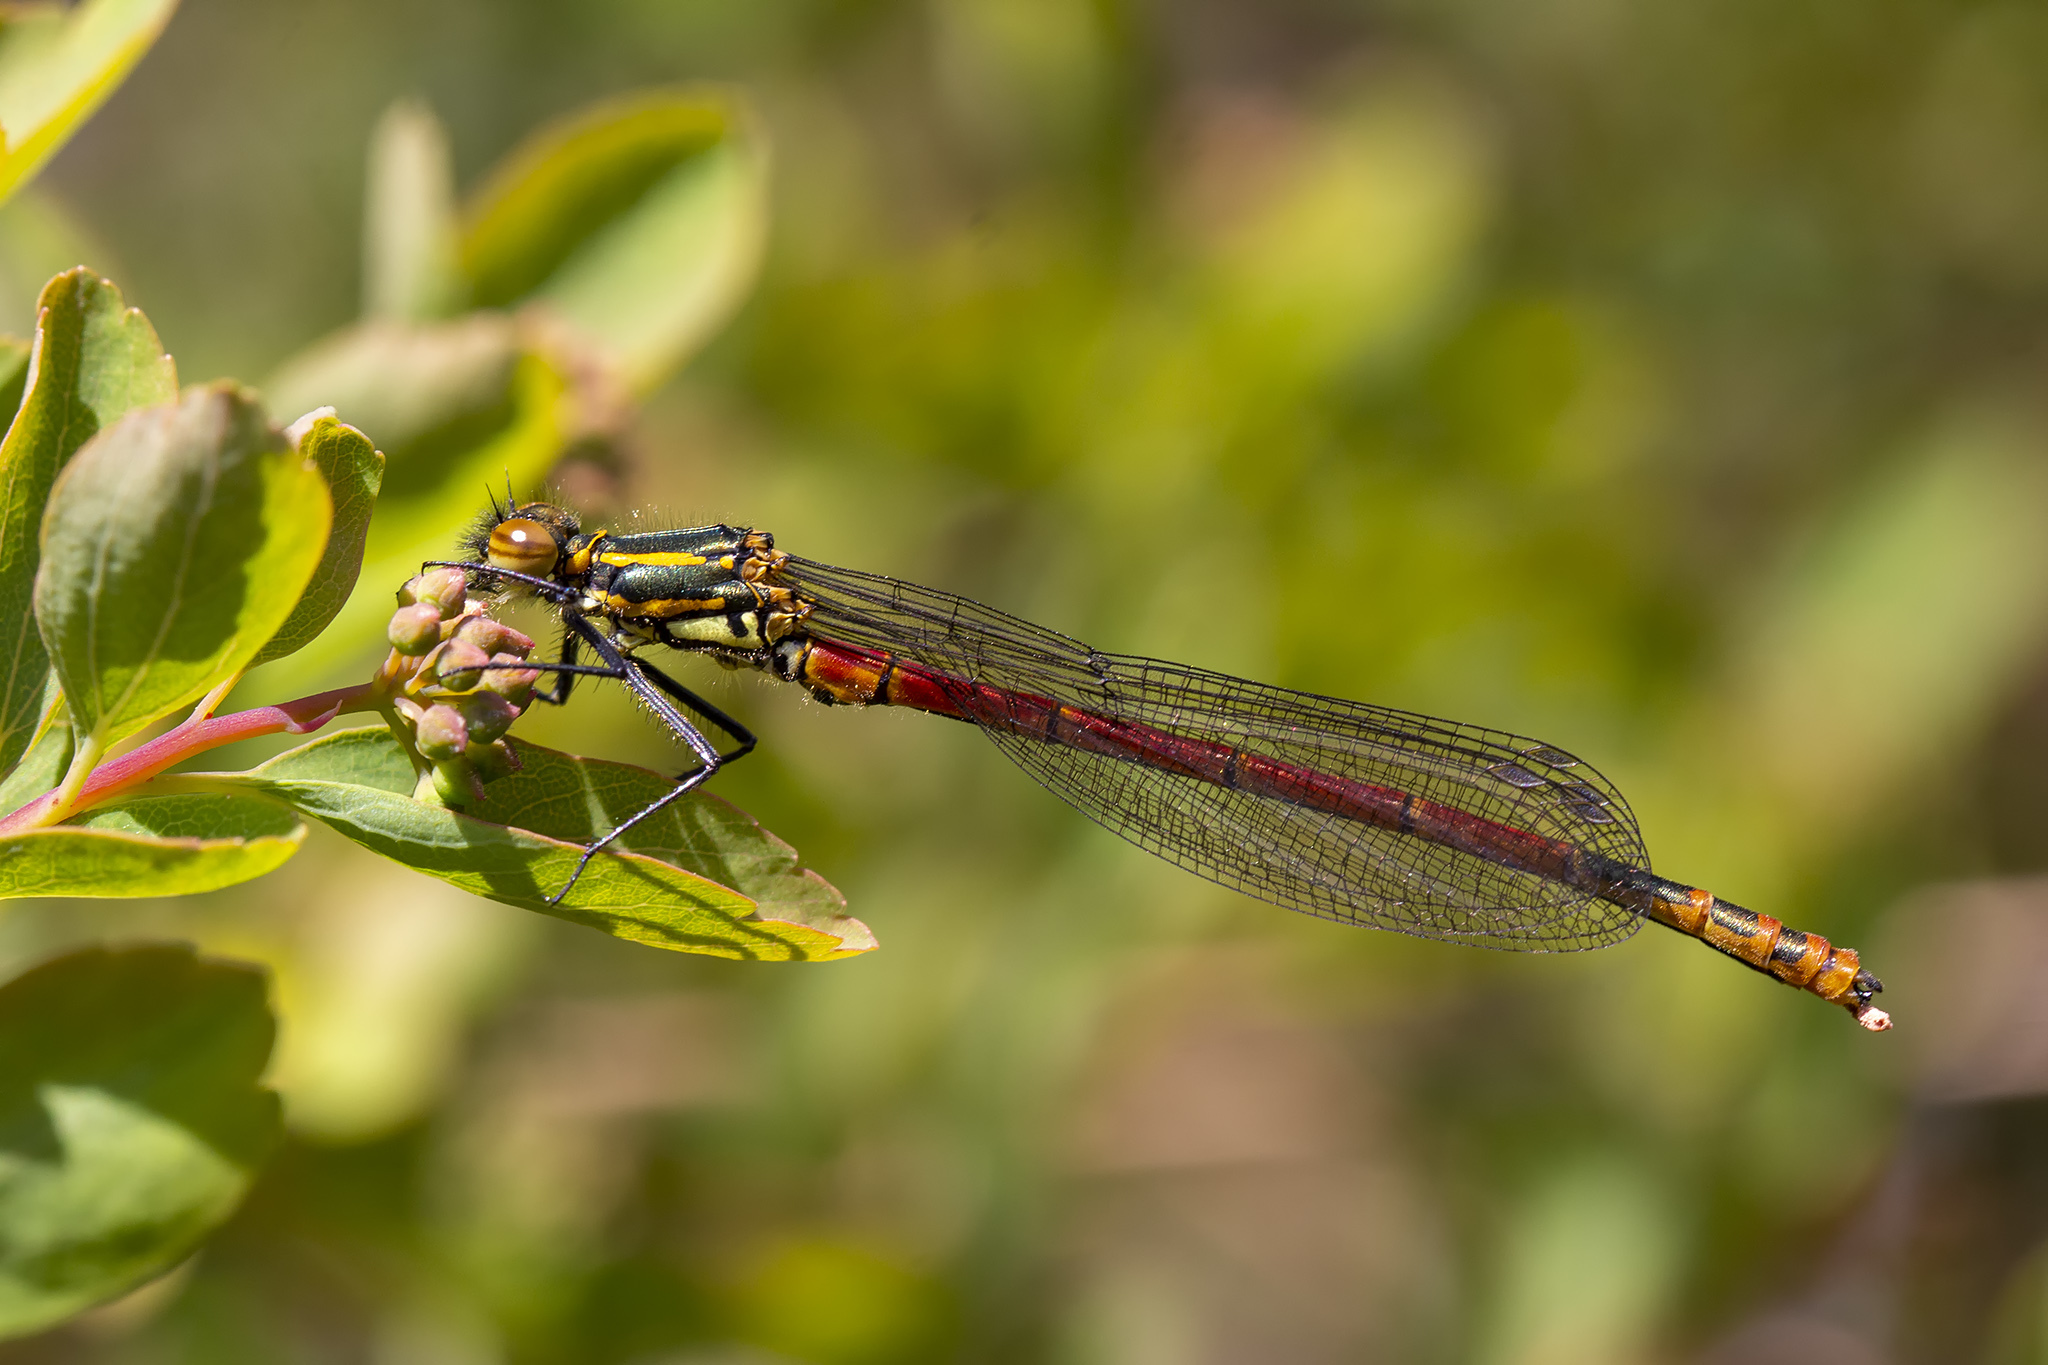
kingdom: Animalia
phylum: Arthropoda
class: Insecta
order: Odonata
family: Coenagrionidae
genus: Pyrrhosoma
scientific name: Pyrrhosoma nymphula
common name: Large red damsel
